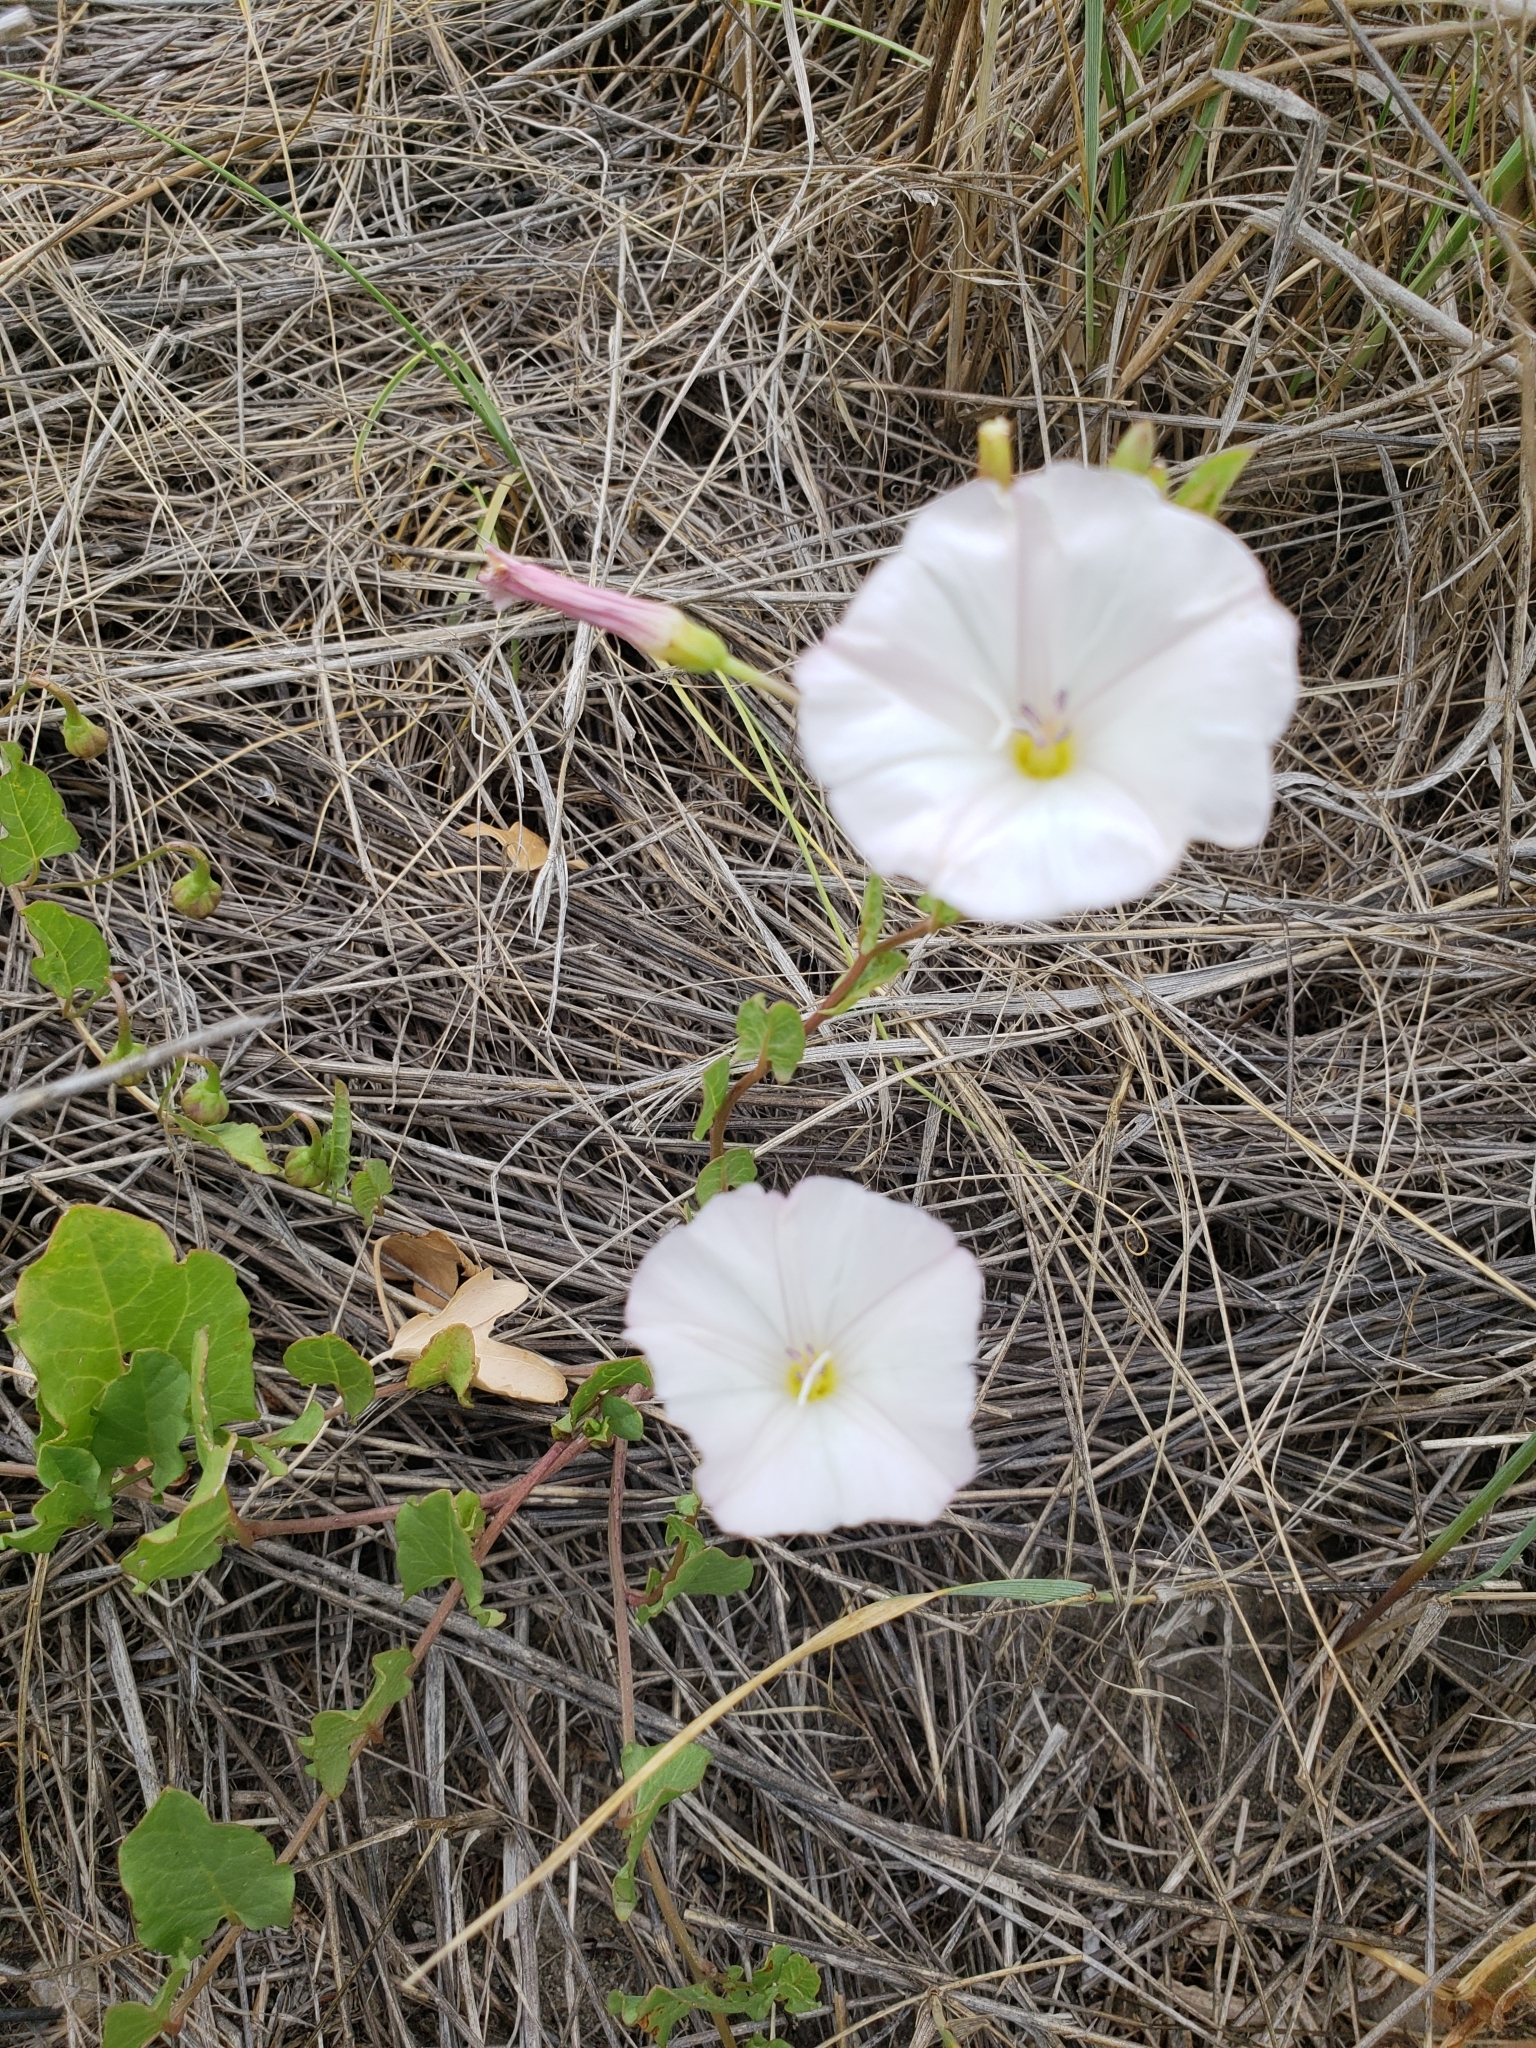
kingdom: Plantae
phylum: Tracheophyta
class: Magnoliopsida
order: Solanales
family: Convolvulaceae
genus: Convolvulus
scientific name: Convolvulus arvensis
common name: Field bindweed
